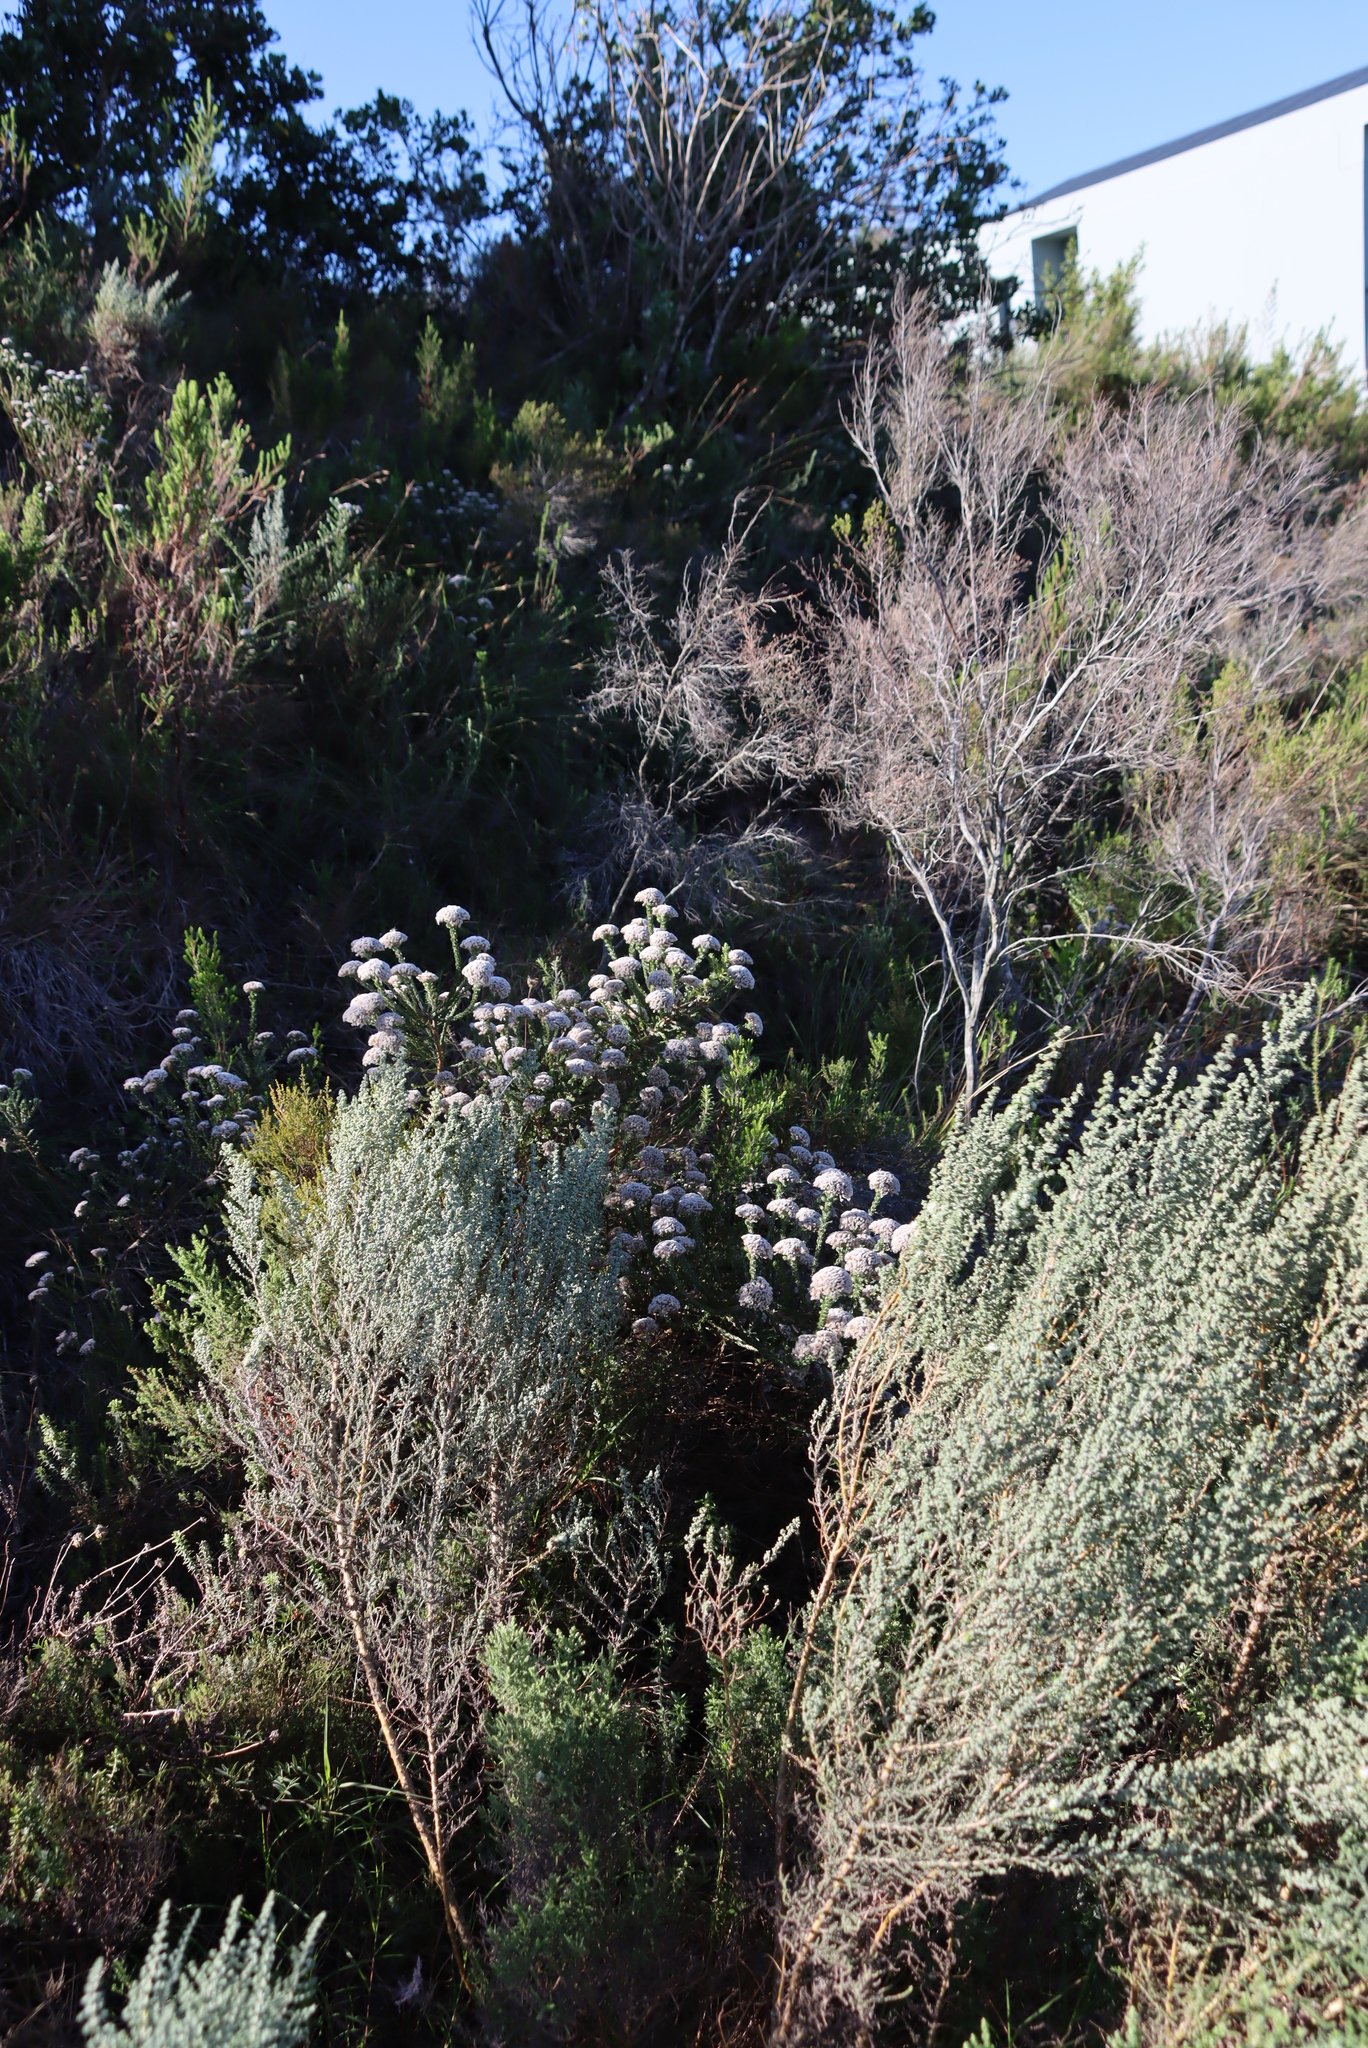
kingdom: Plantae
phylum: Tracheophyta
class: Magnoliopsida
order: Asterales
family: Asteraceae
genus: Metalasia
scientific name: Metalasia pungens
